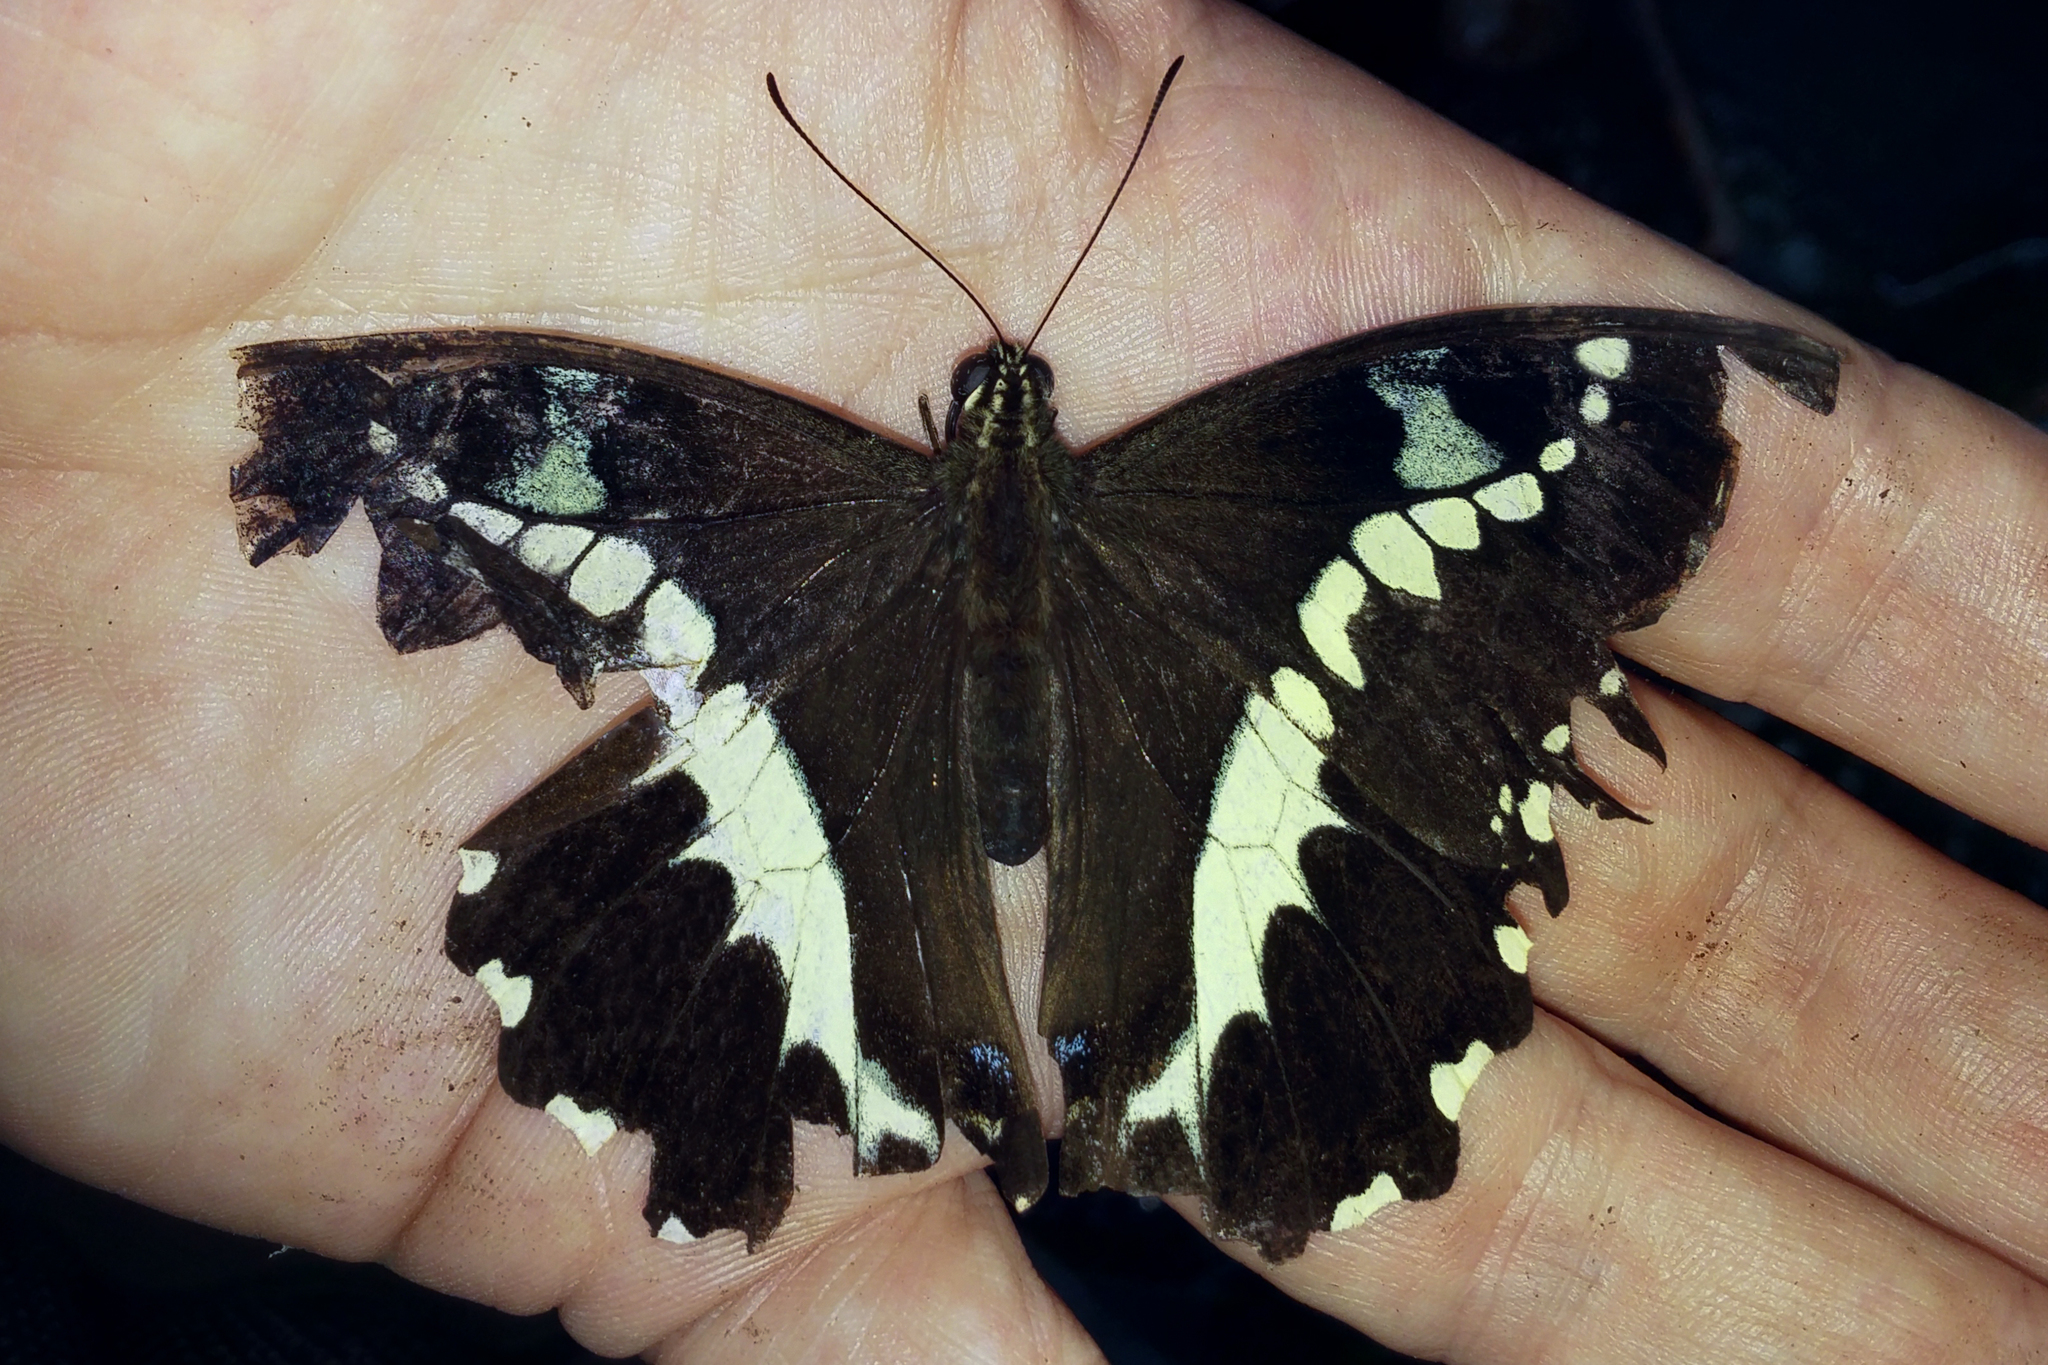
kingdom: Animalia
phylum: Arthropoda
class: Insecta
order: Lepidoptera
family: Papilionidae
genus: Papilio
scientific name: Papilio delalandei
